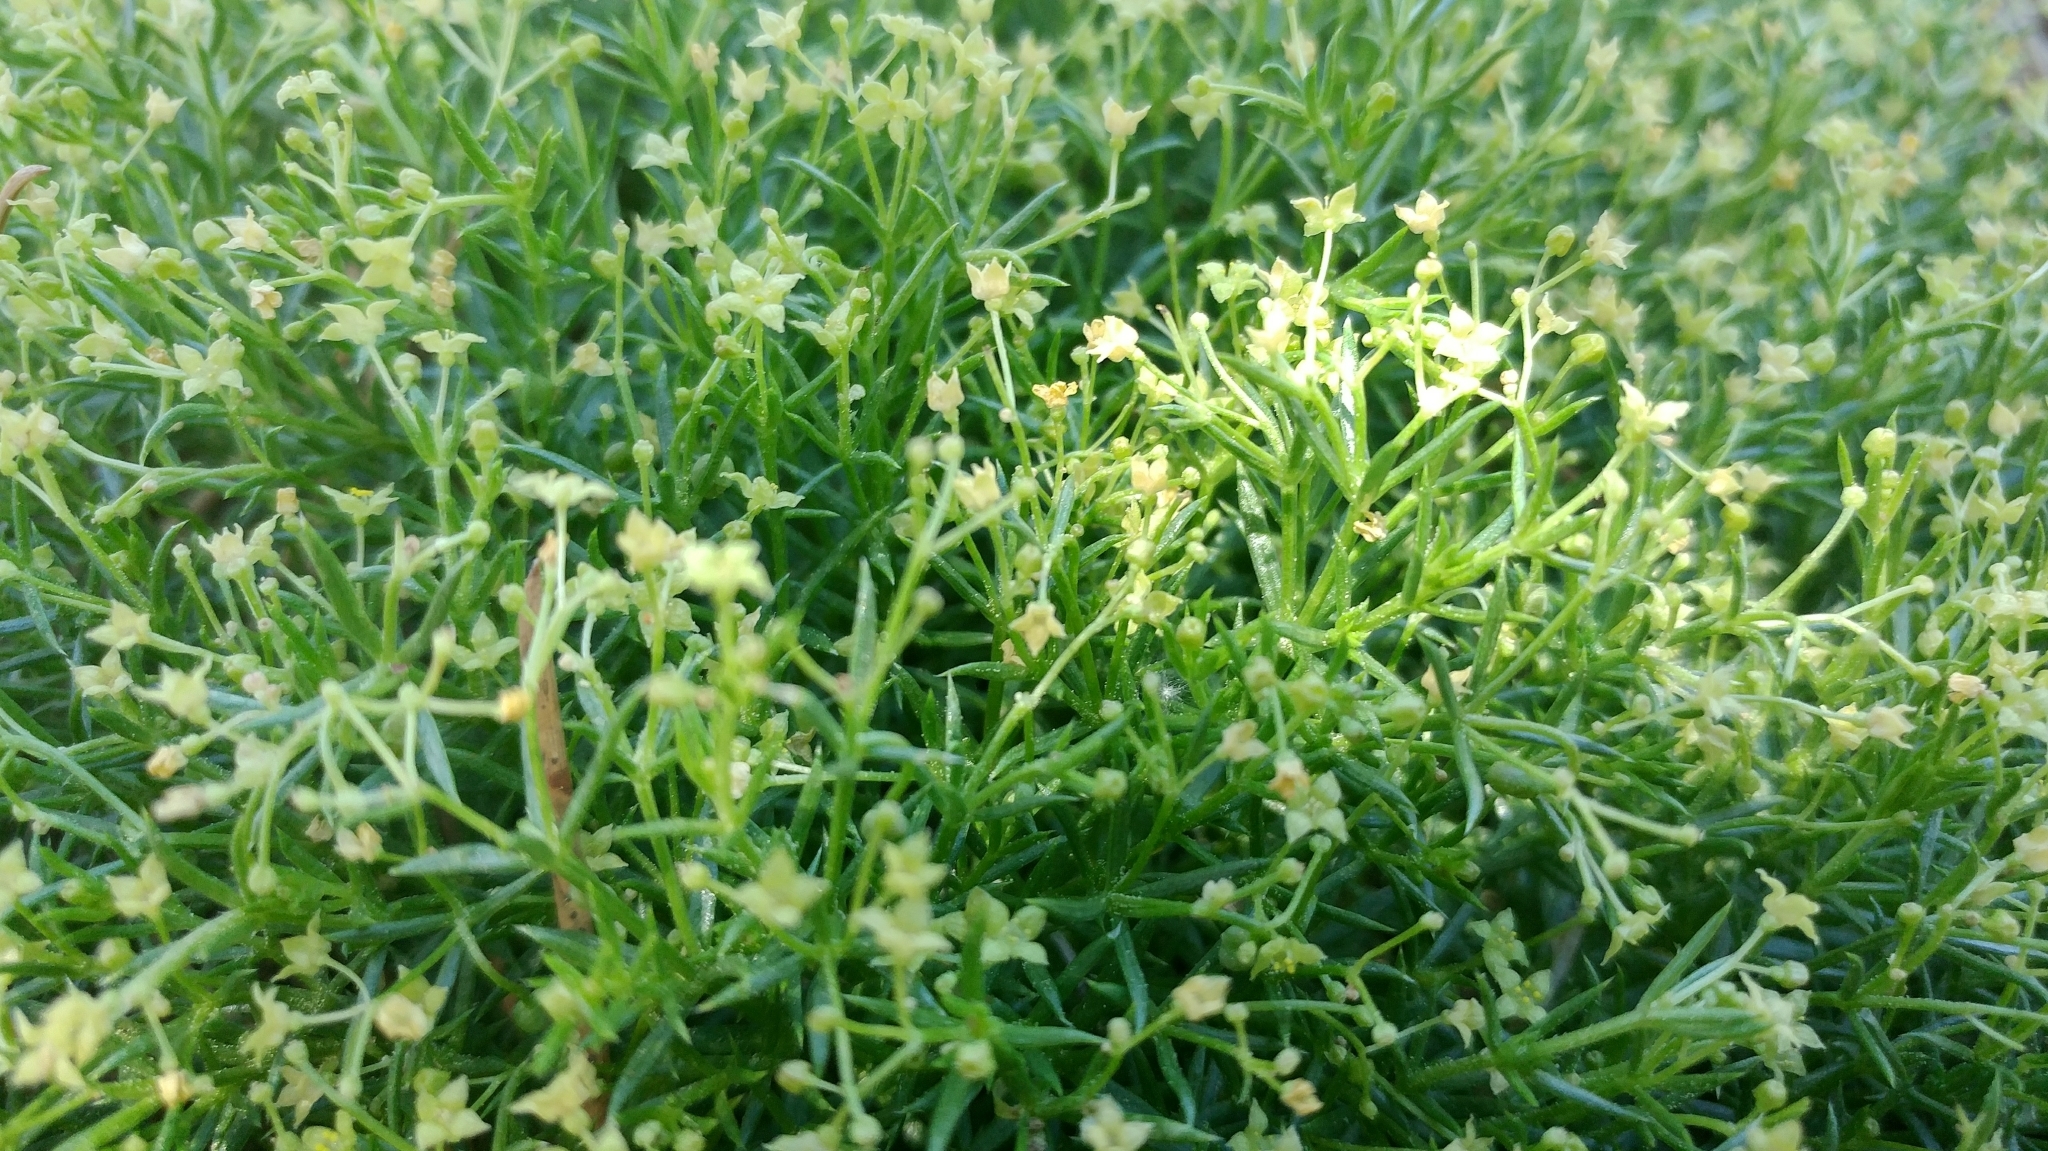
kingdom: Plantae
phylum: Tracheophyta
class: Magnoliopsida
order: Gentianales
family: Rubiaceae
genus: Galium
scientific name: Galium andrewsii
